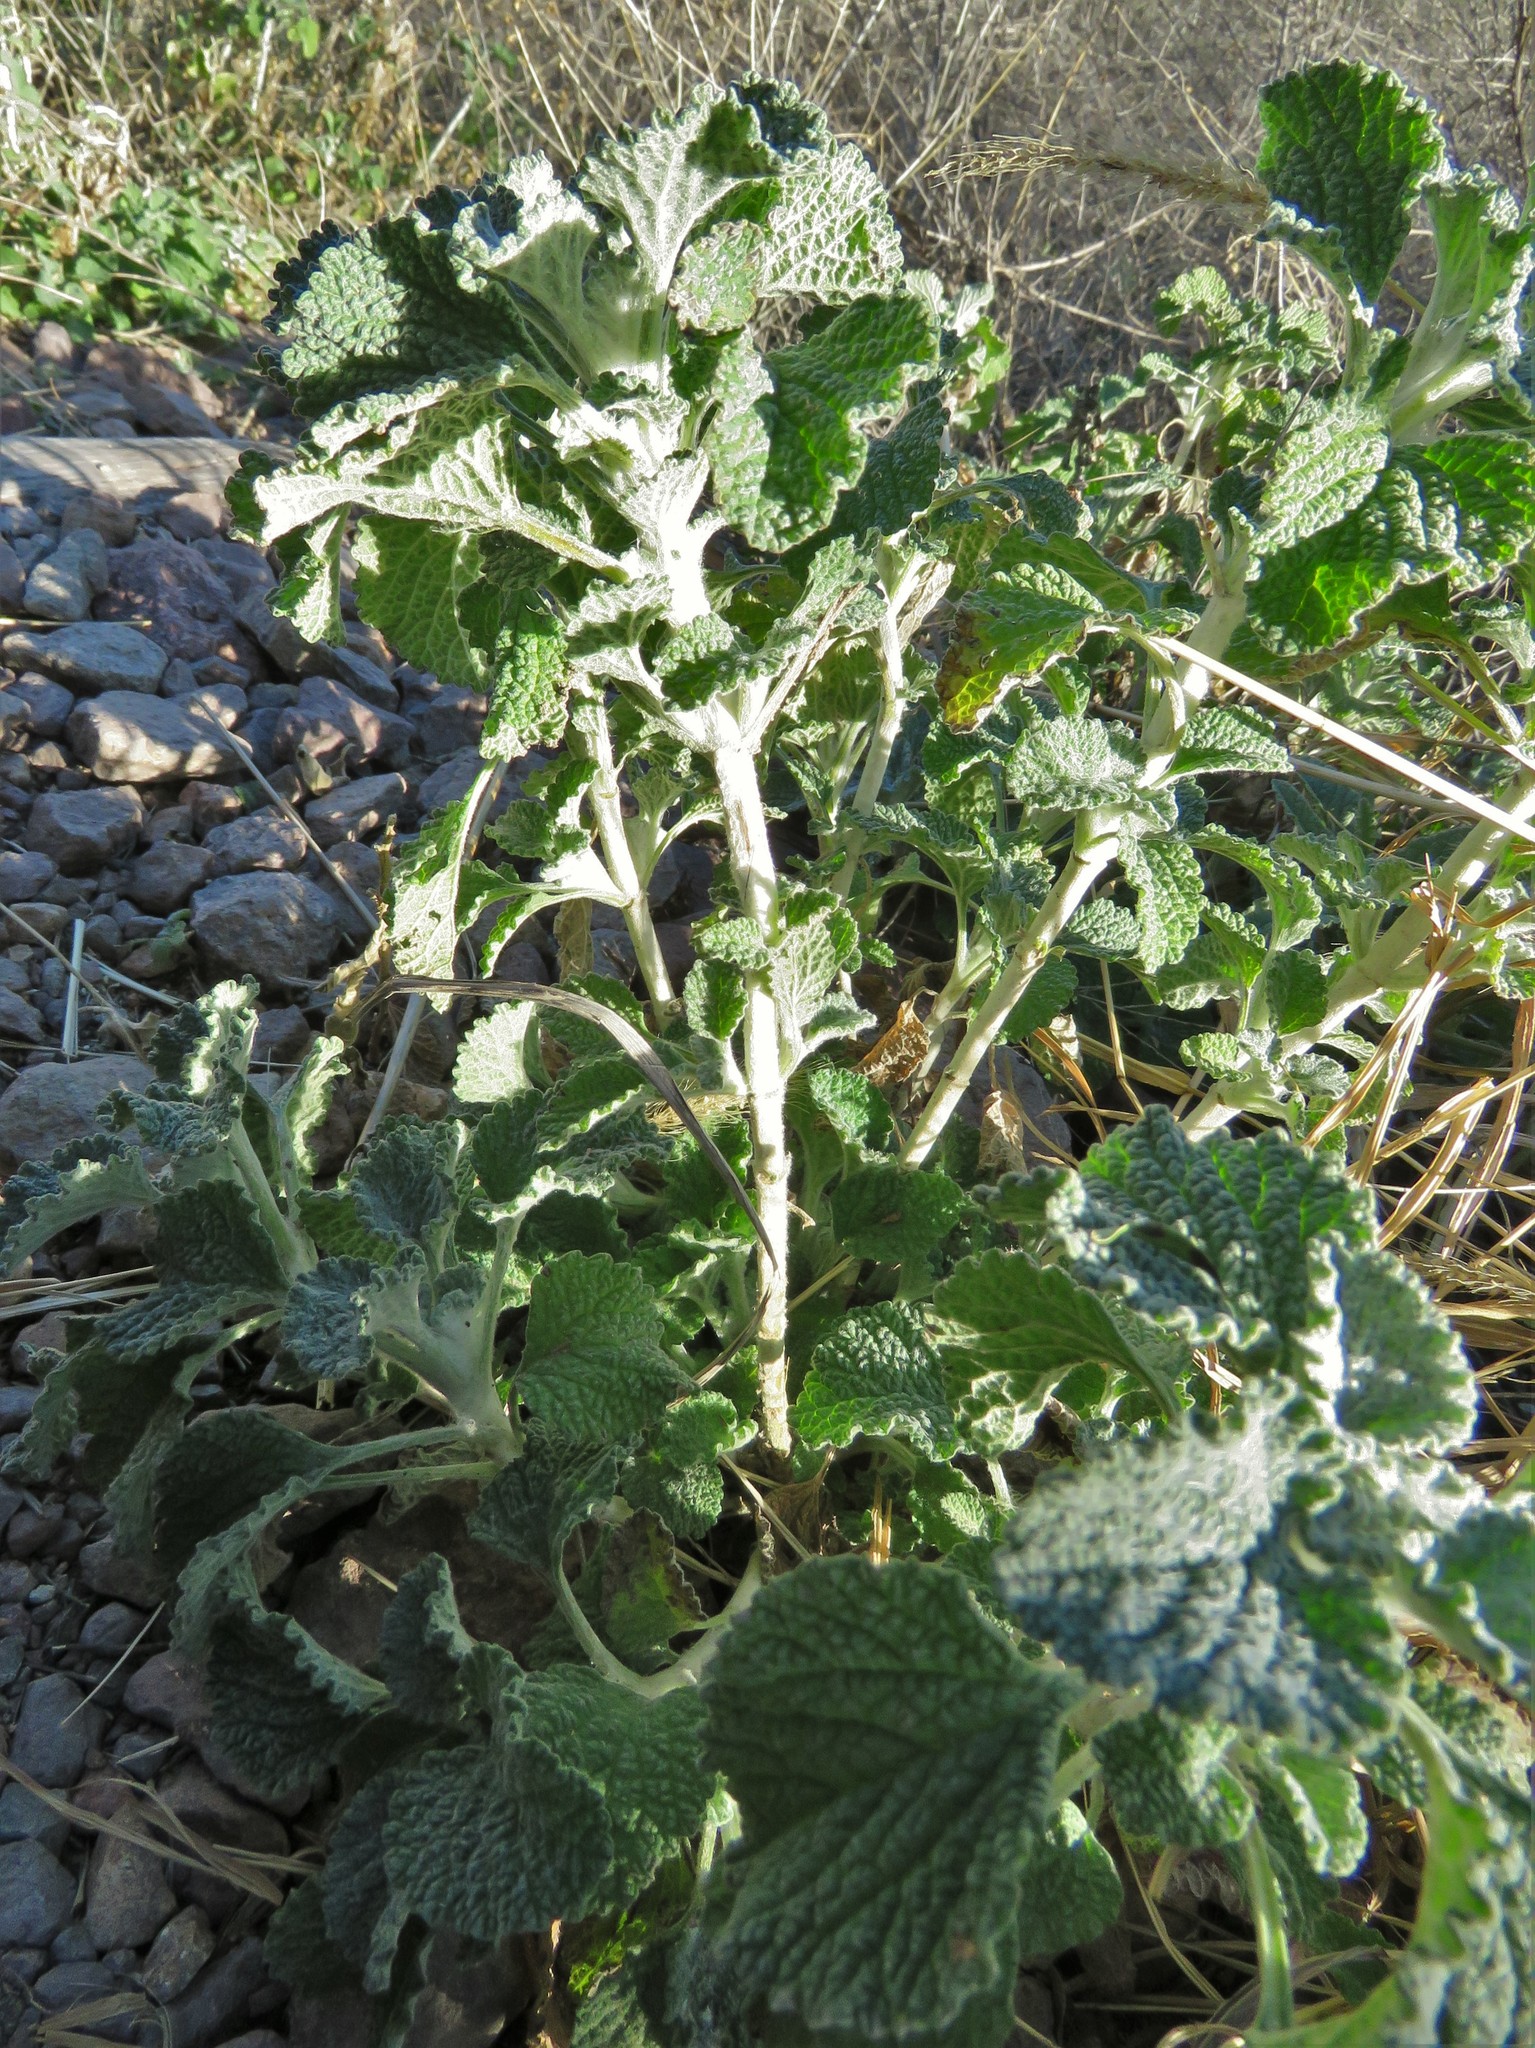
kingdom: Plantae
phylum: Tracheophyta
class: Magnoliopsida
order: Lamiales
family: Lamiaceae
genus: Marrubium
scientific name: Marrubium vulgare
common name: Horehound
